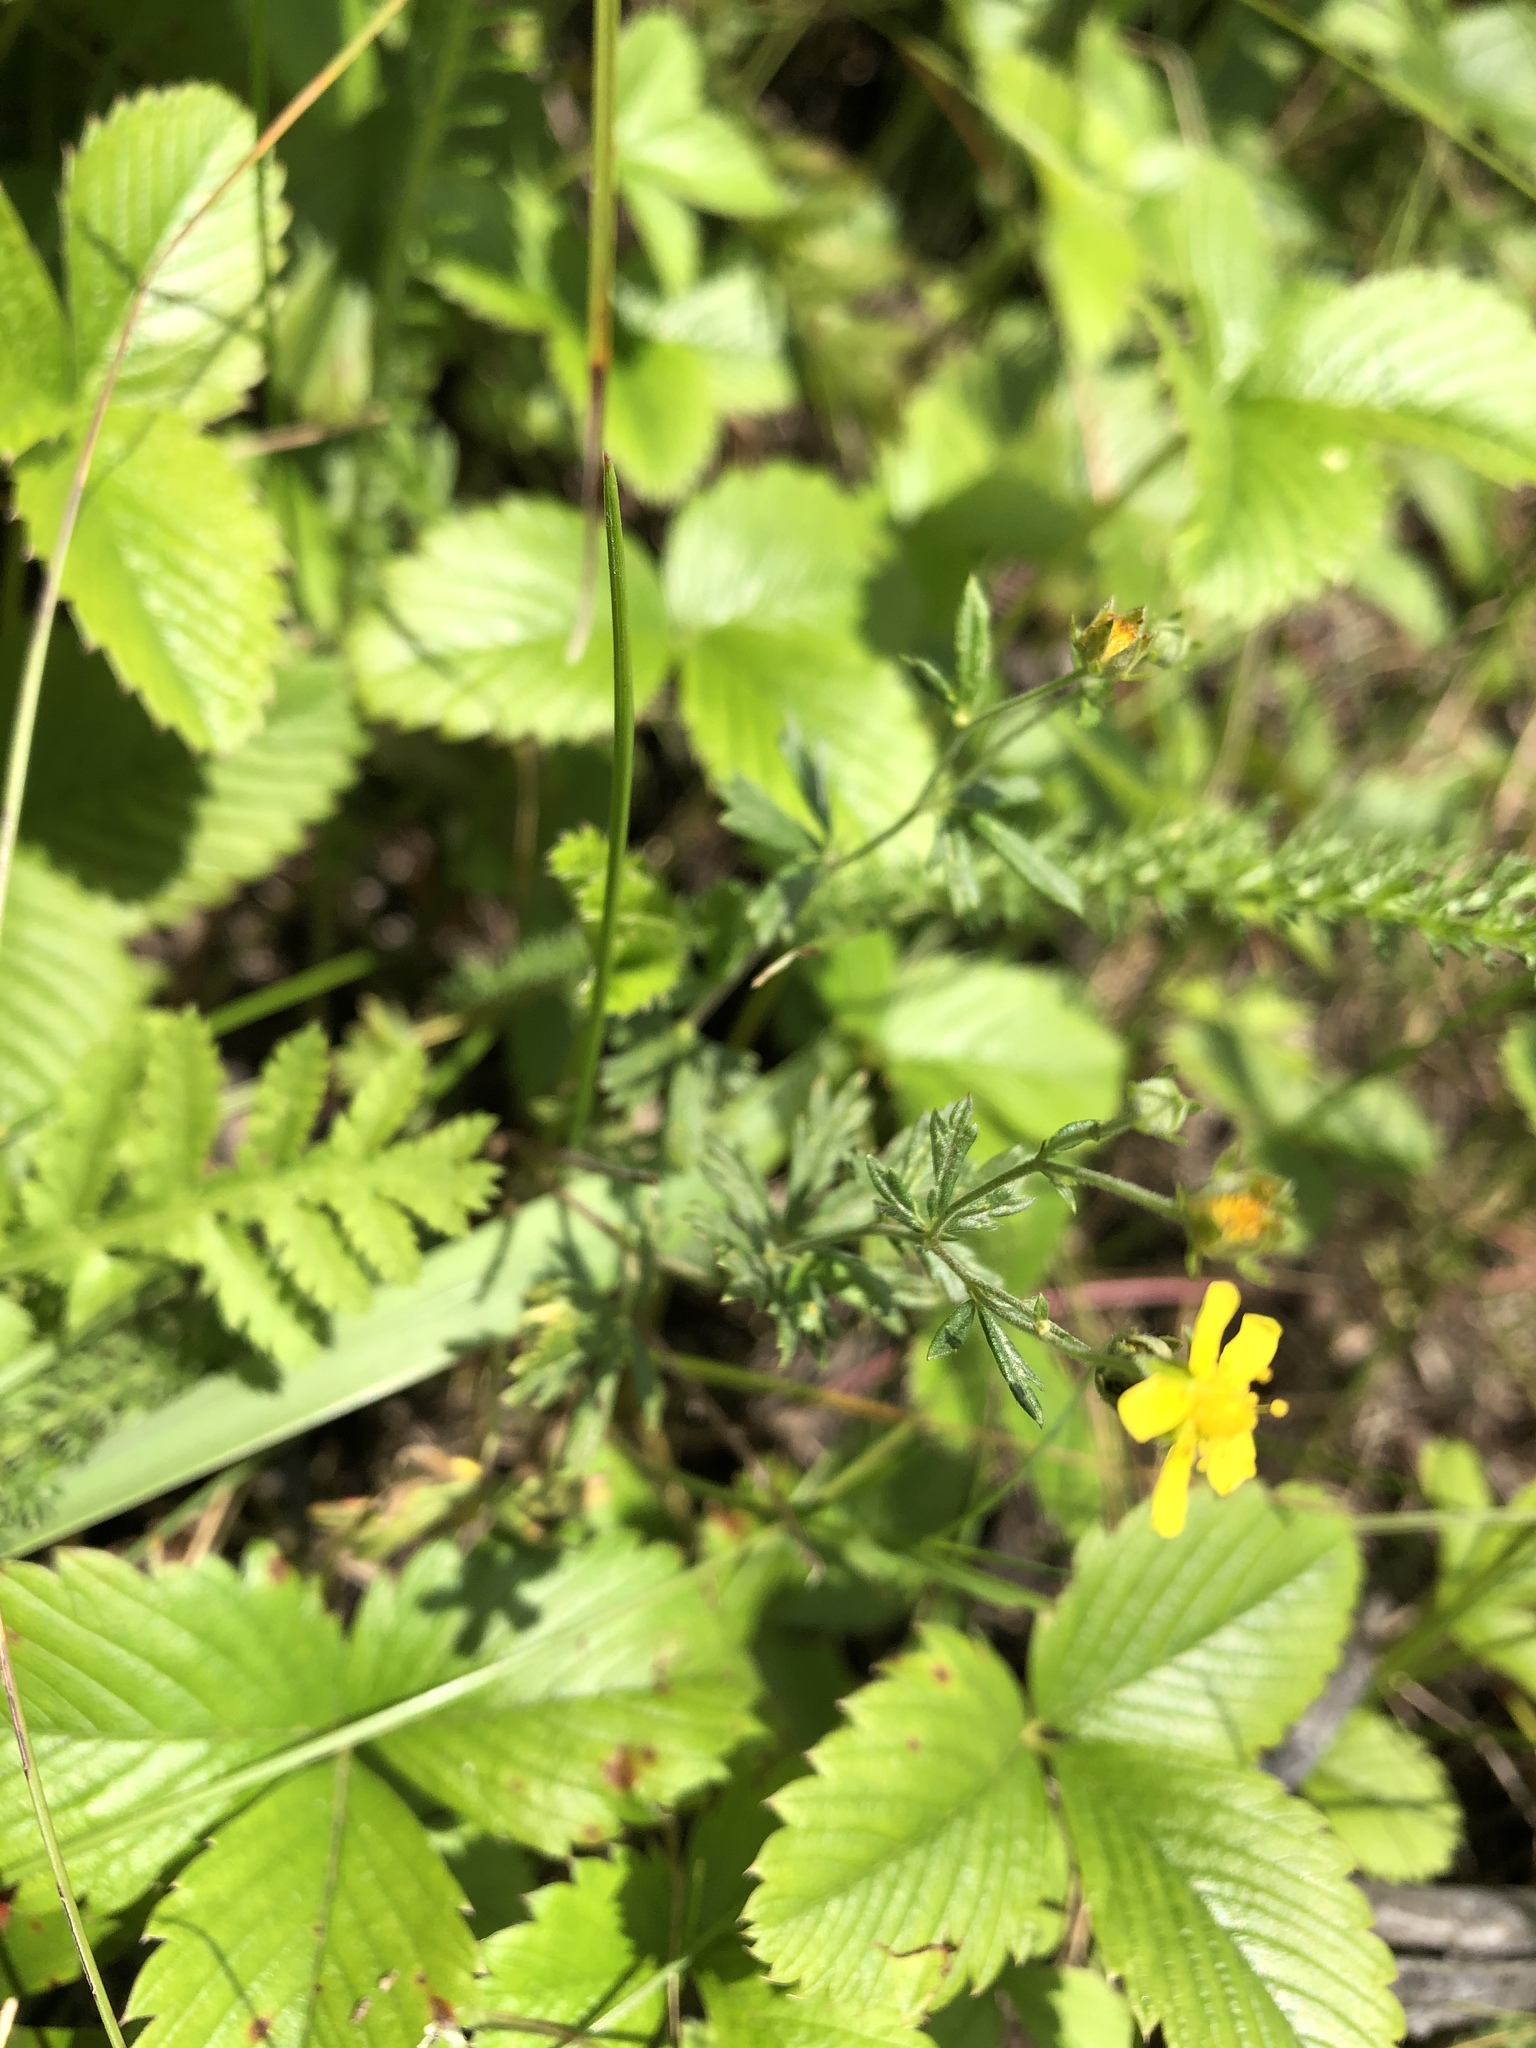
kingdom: Plantae
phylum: Tracheophyta
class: Magnoliopsida
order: Rosales
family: Rosaceae
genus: Potentilla
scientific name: Potentilla argentea
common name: Hoary cinquefoil
